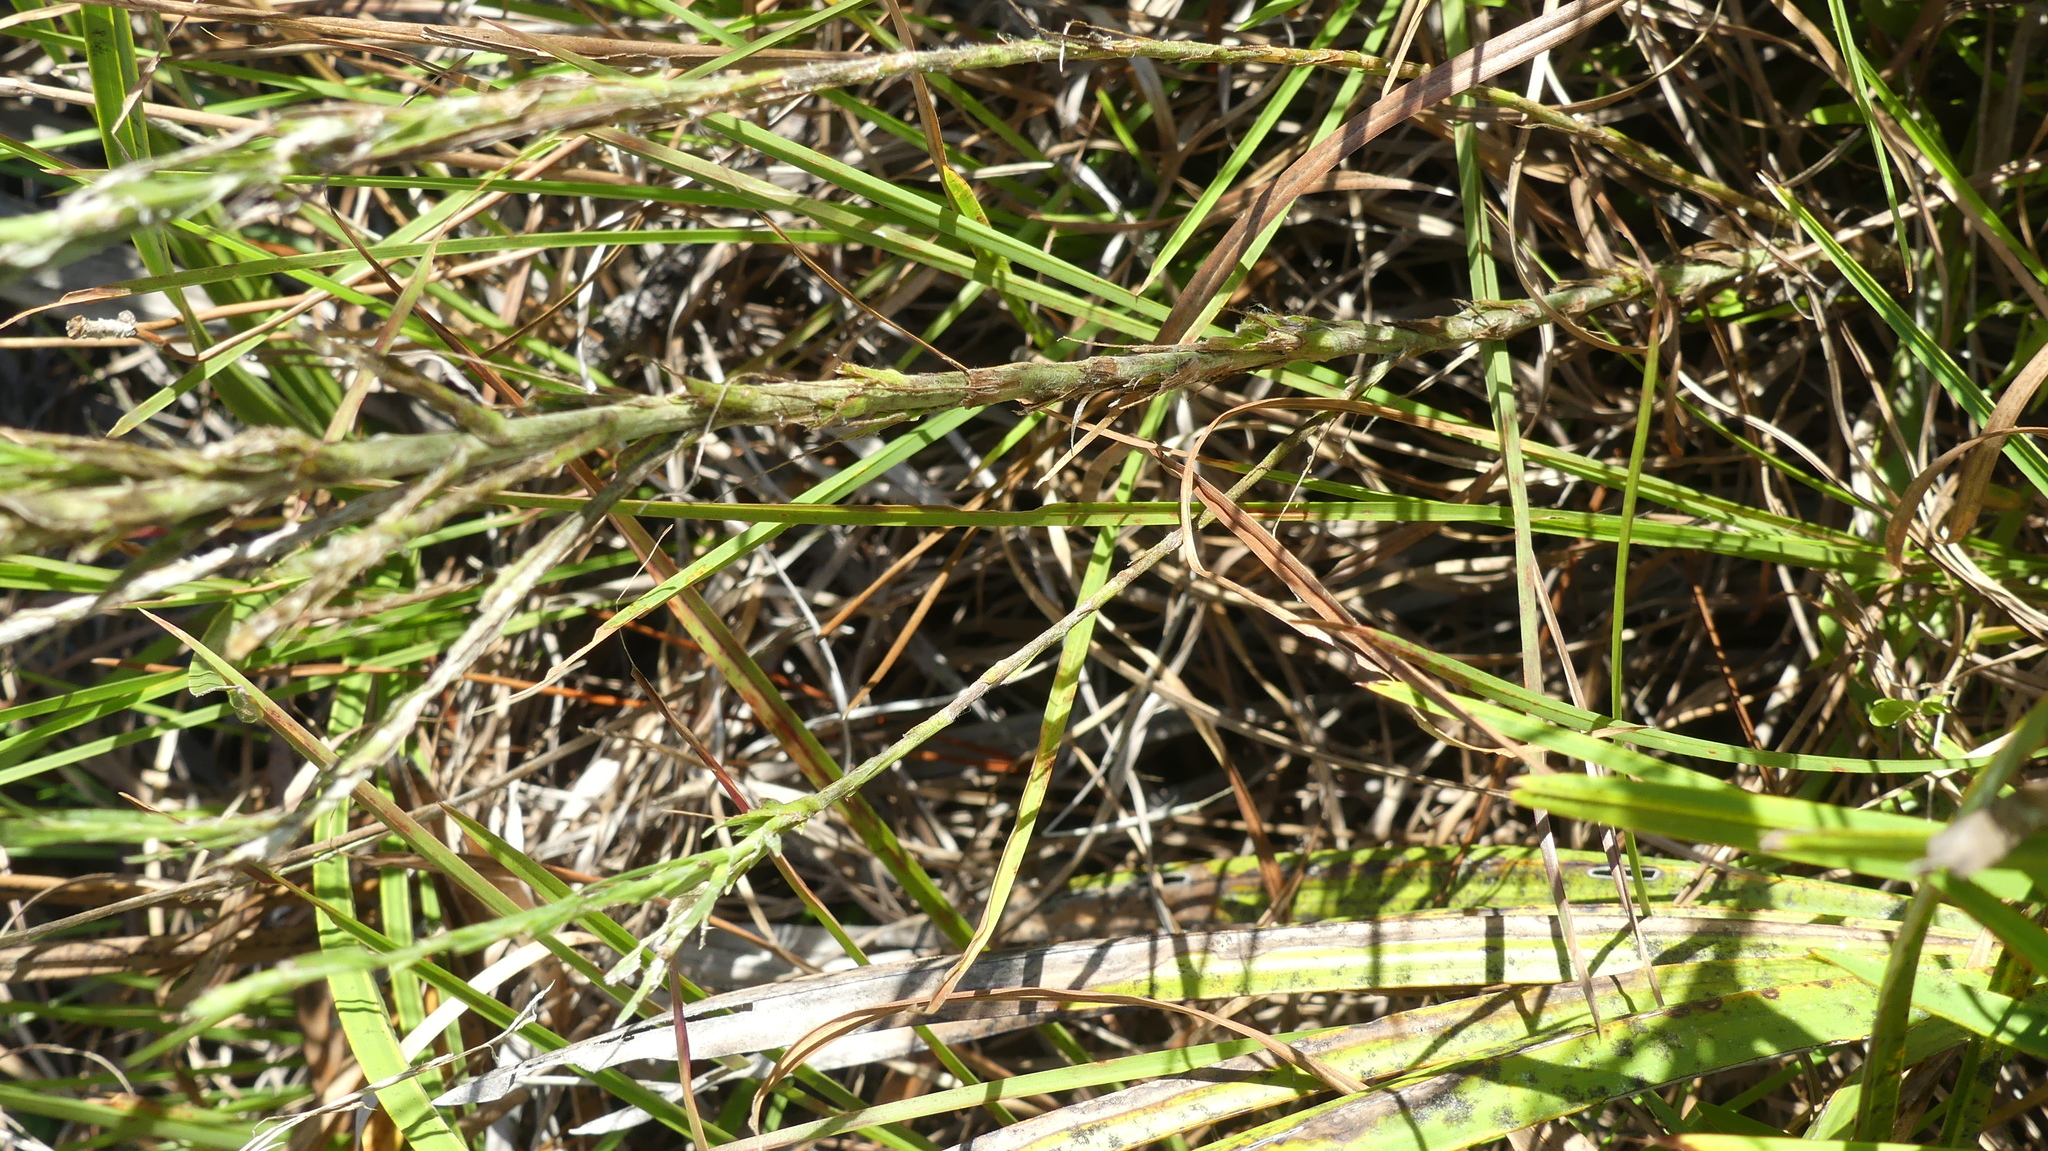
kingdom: Plantae
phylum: Tracheophyta
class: Magnoliopsida
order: Asterales
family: Asteraceae
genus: Pityopsis
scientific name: Pityopsis graminifolia
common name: Grass-leaf golden-aster
